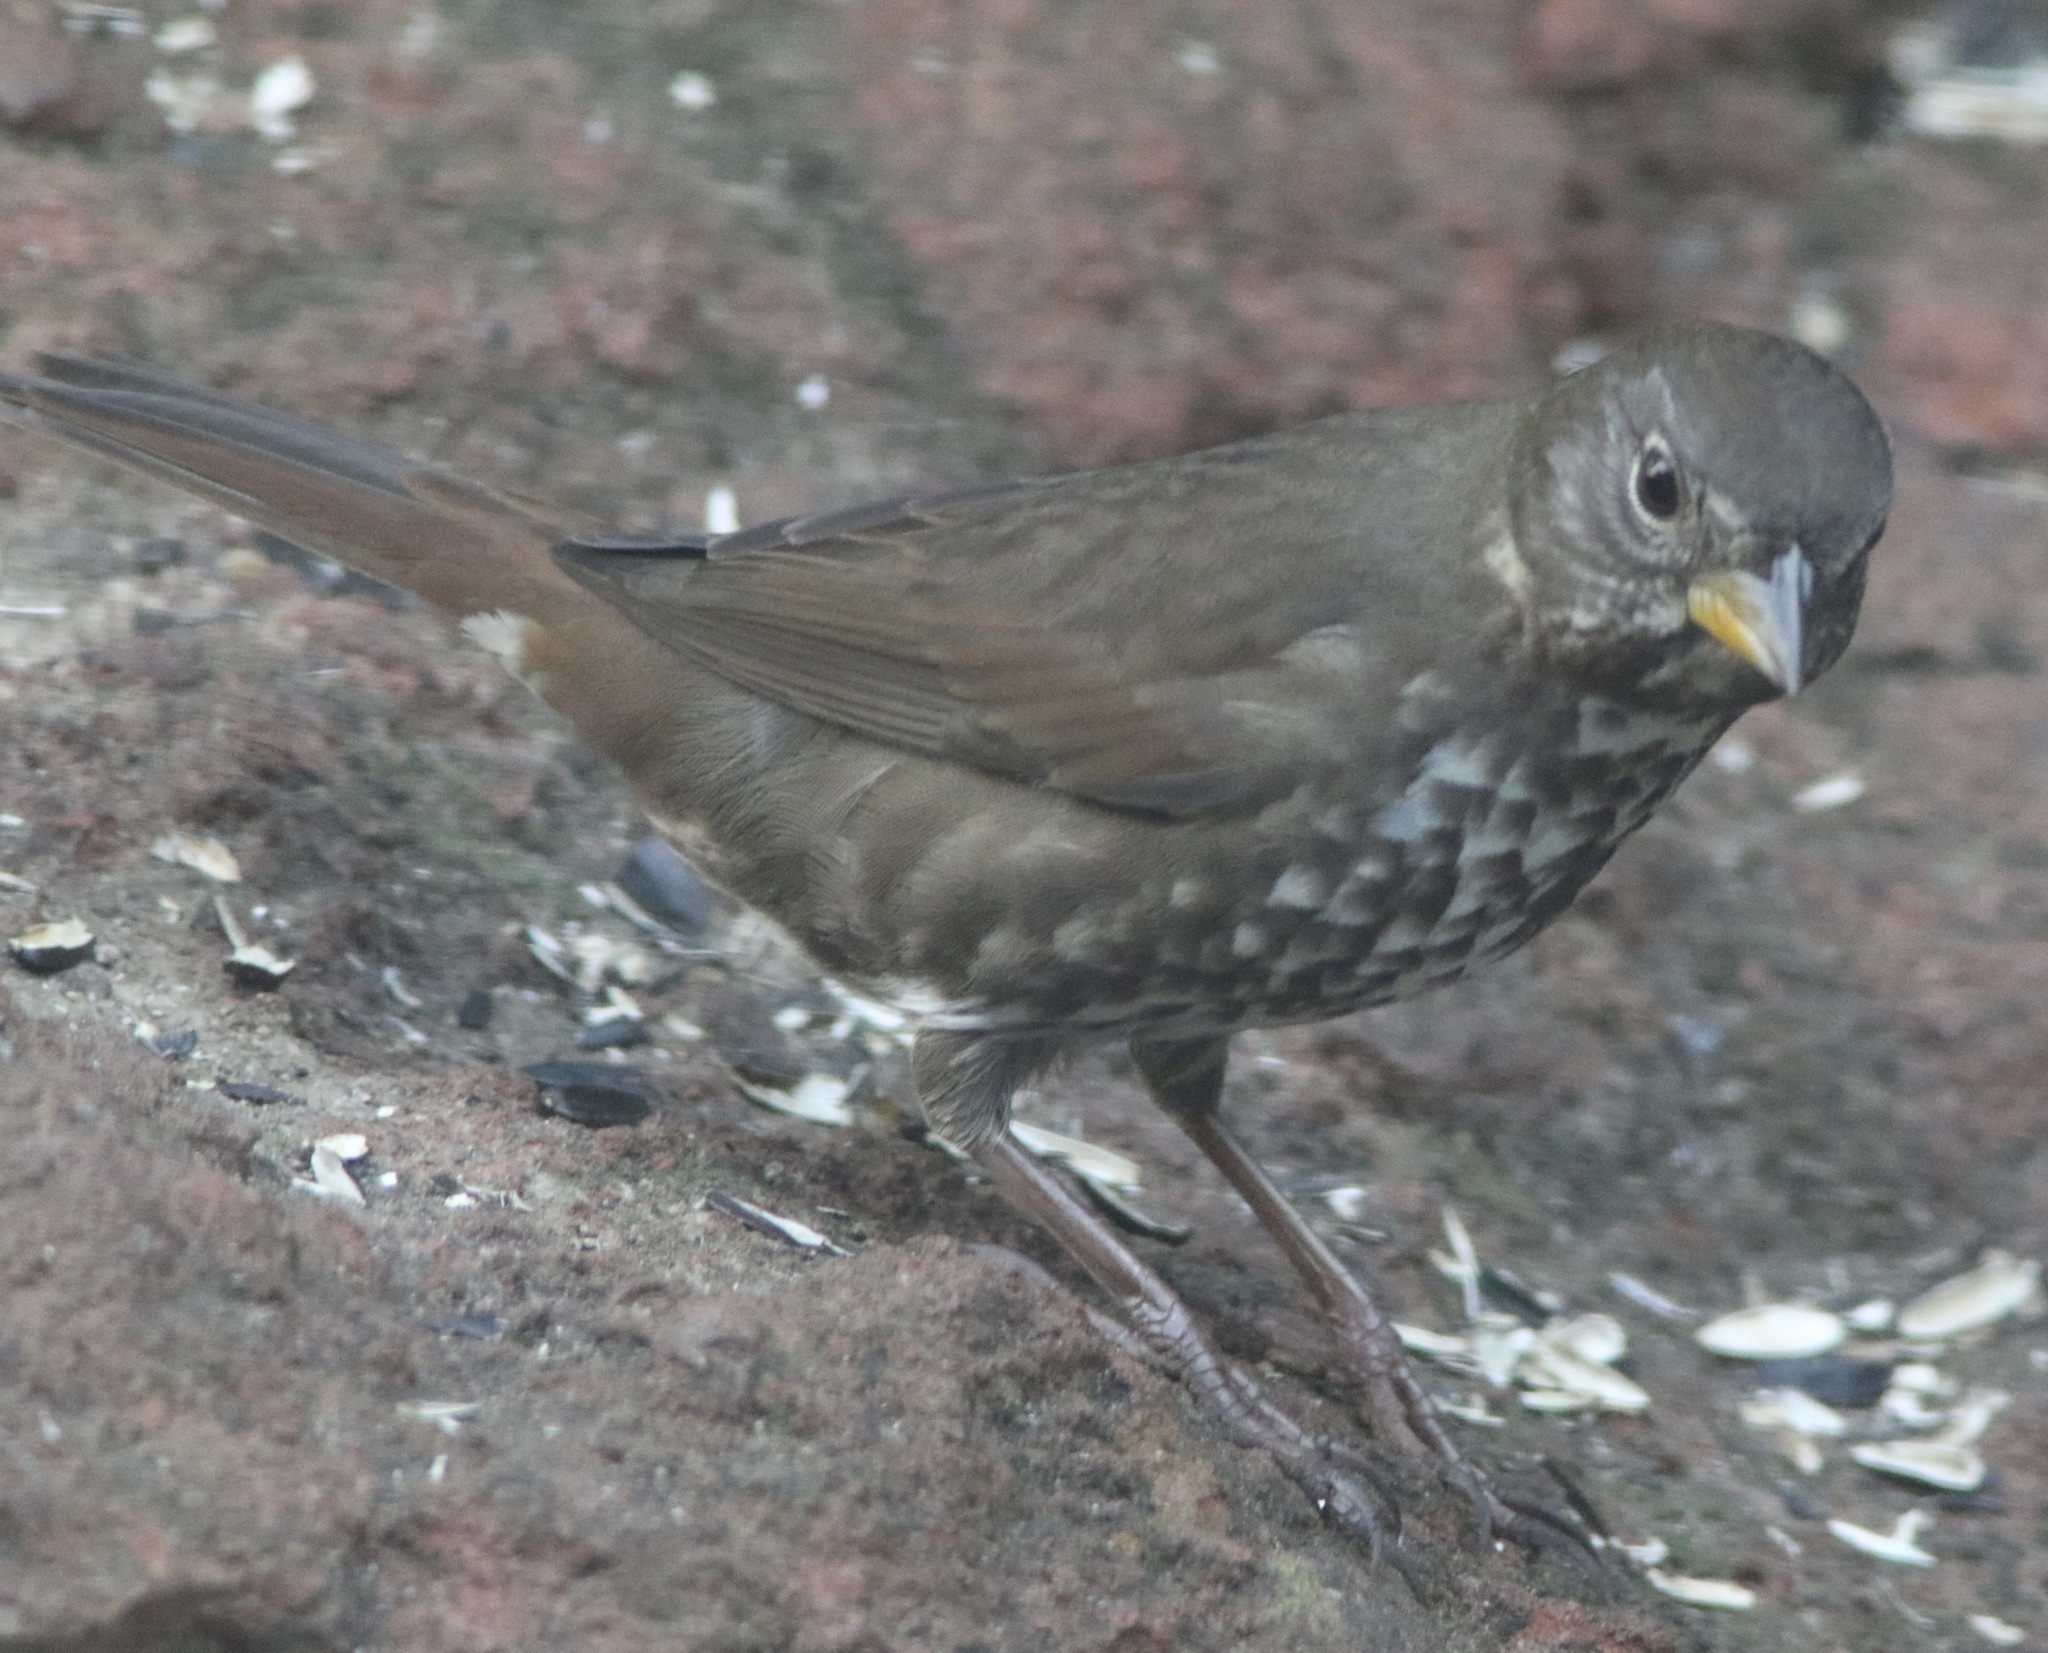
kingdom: Animalia
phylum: Chordata
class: Aves
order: Passeriformes
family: Passerellidae
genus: Passerella
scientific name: Passerella iliaca
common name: Fox sparrow
